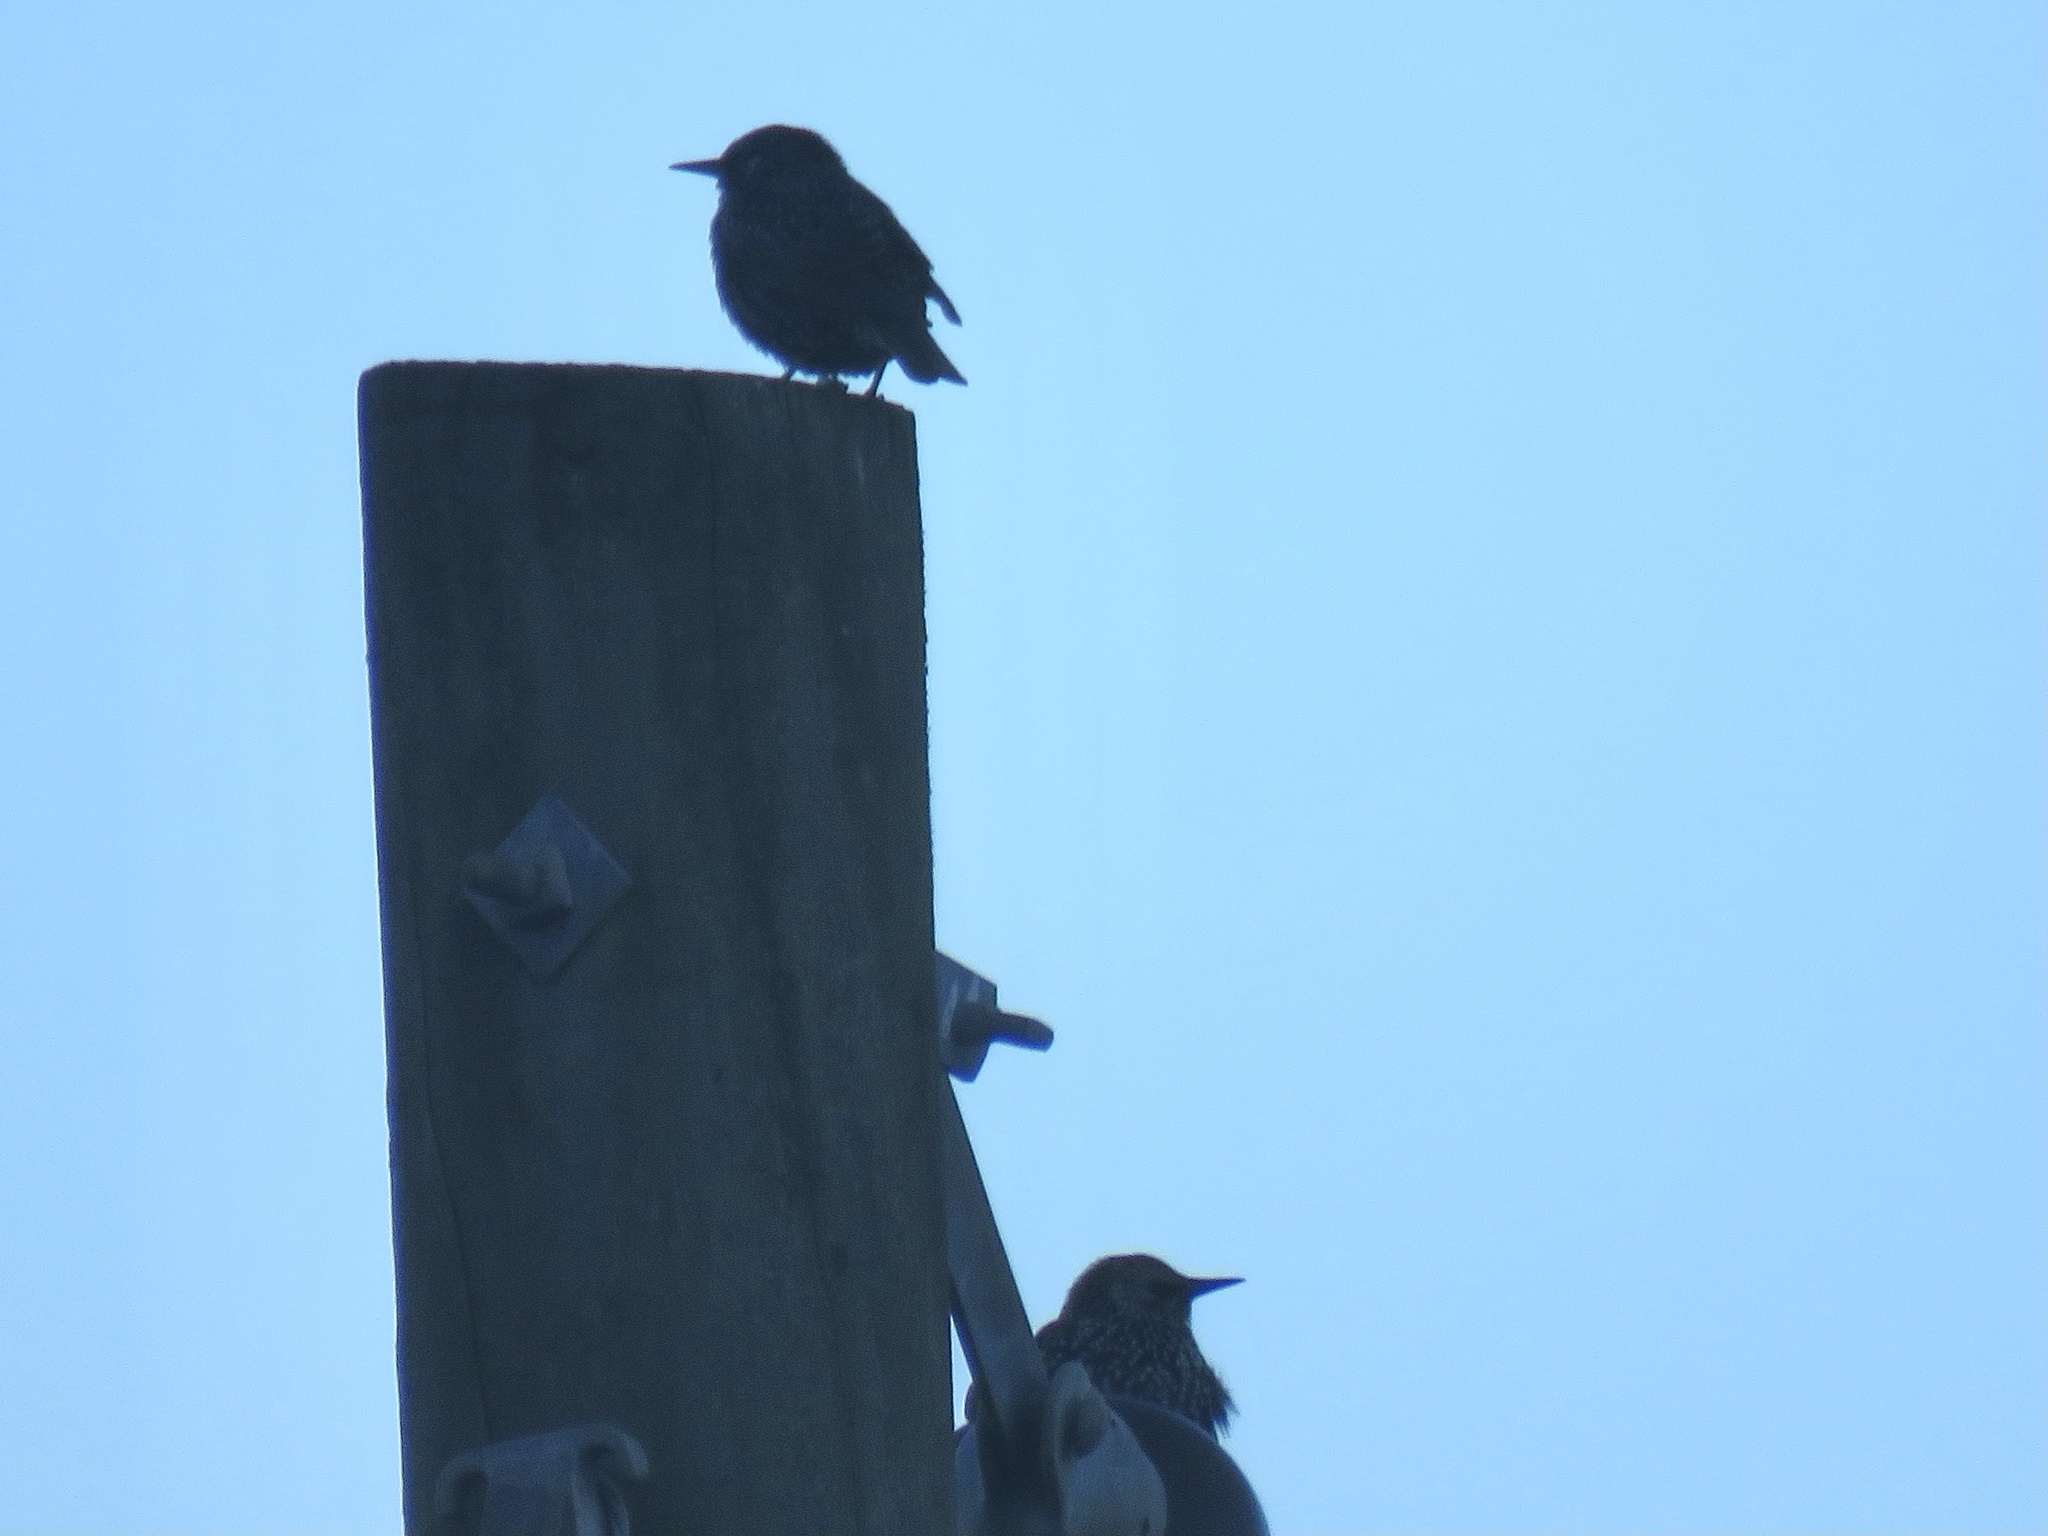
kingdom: Animalia
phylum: Chordata
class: Aves
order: Passeriformes
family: Sturnidae
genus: Sturnus
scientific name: Sturnus vulgaris
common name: Common starling
